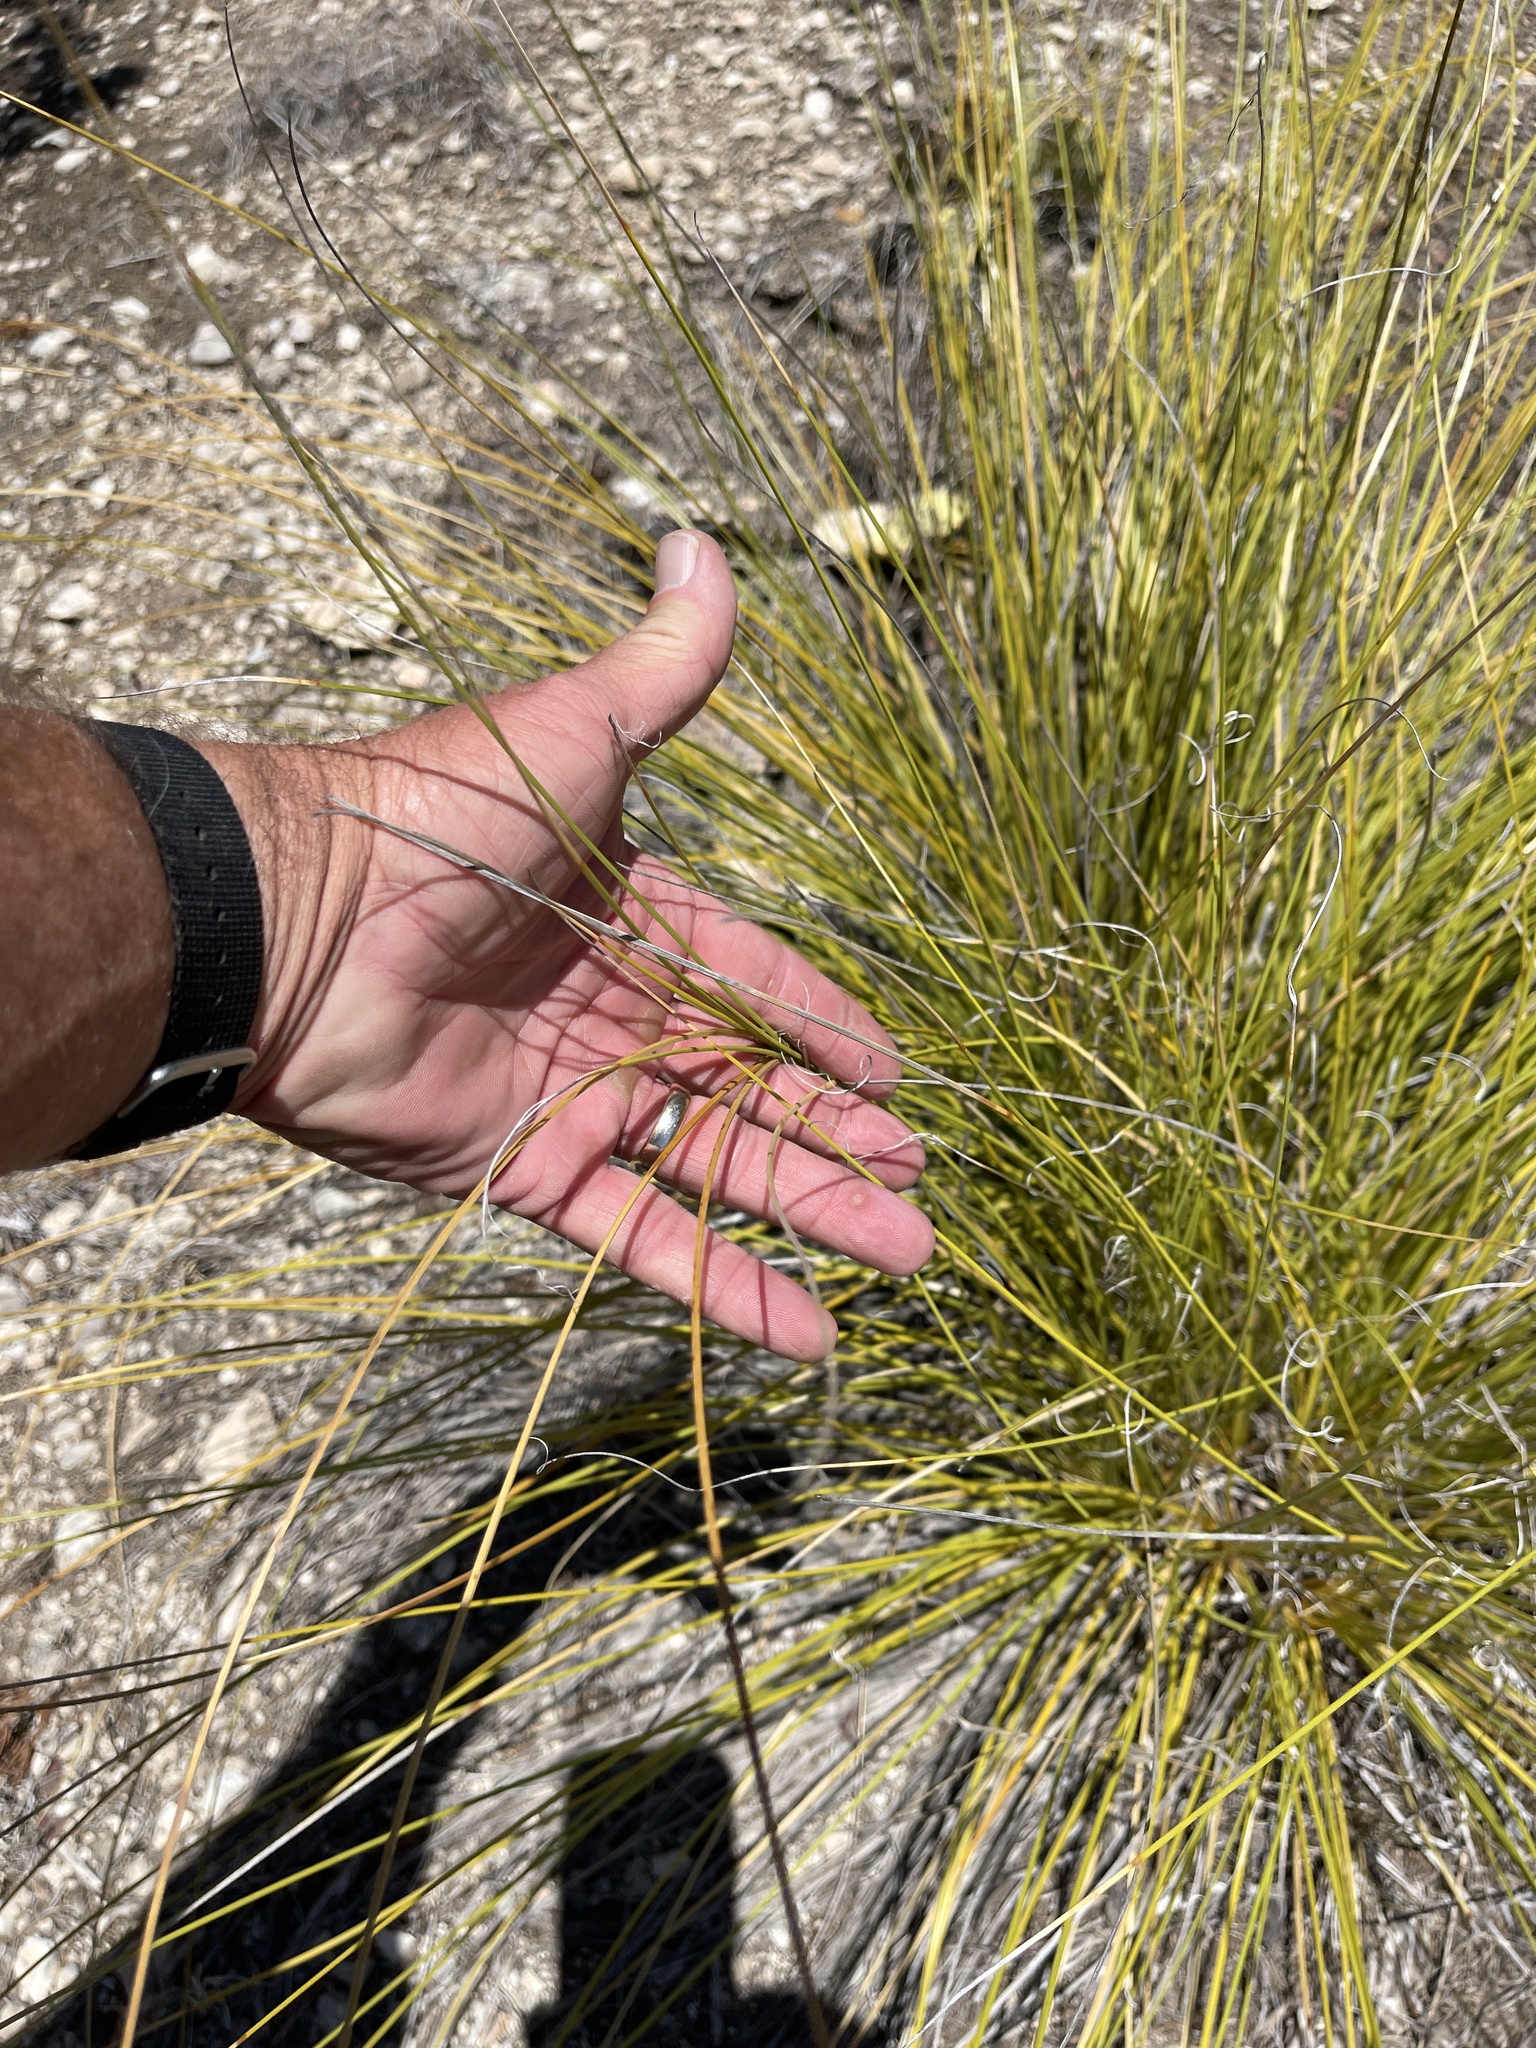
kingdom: Plantae
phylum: Tracheophyta
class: Liliopsida
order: Asparagales
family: Asparagaceae
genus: Nolina
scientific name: Nolina texana
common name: Texas sacahuiste
